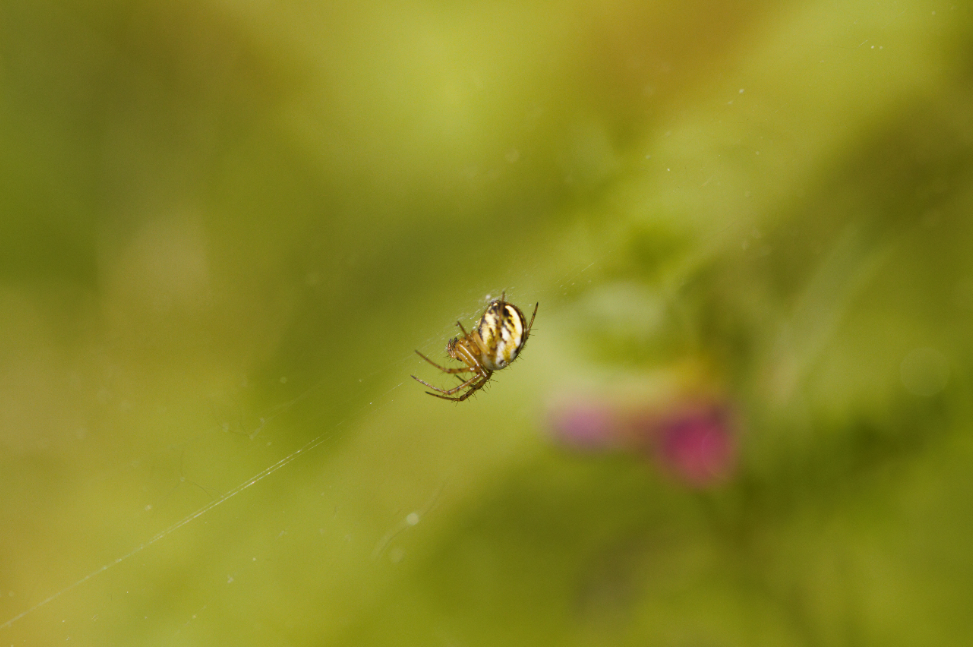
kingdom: Animalia
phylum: Arthropoda
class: Arachnida
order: Araneae
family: Araneidae
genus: Mangora
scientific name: Mangora acalypha
